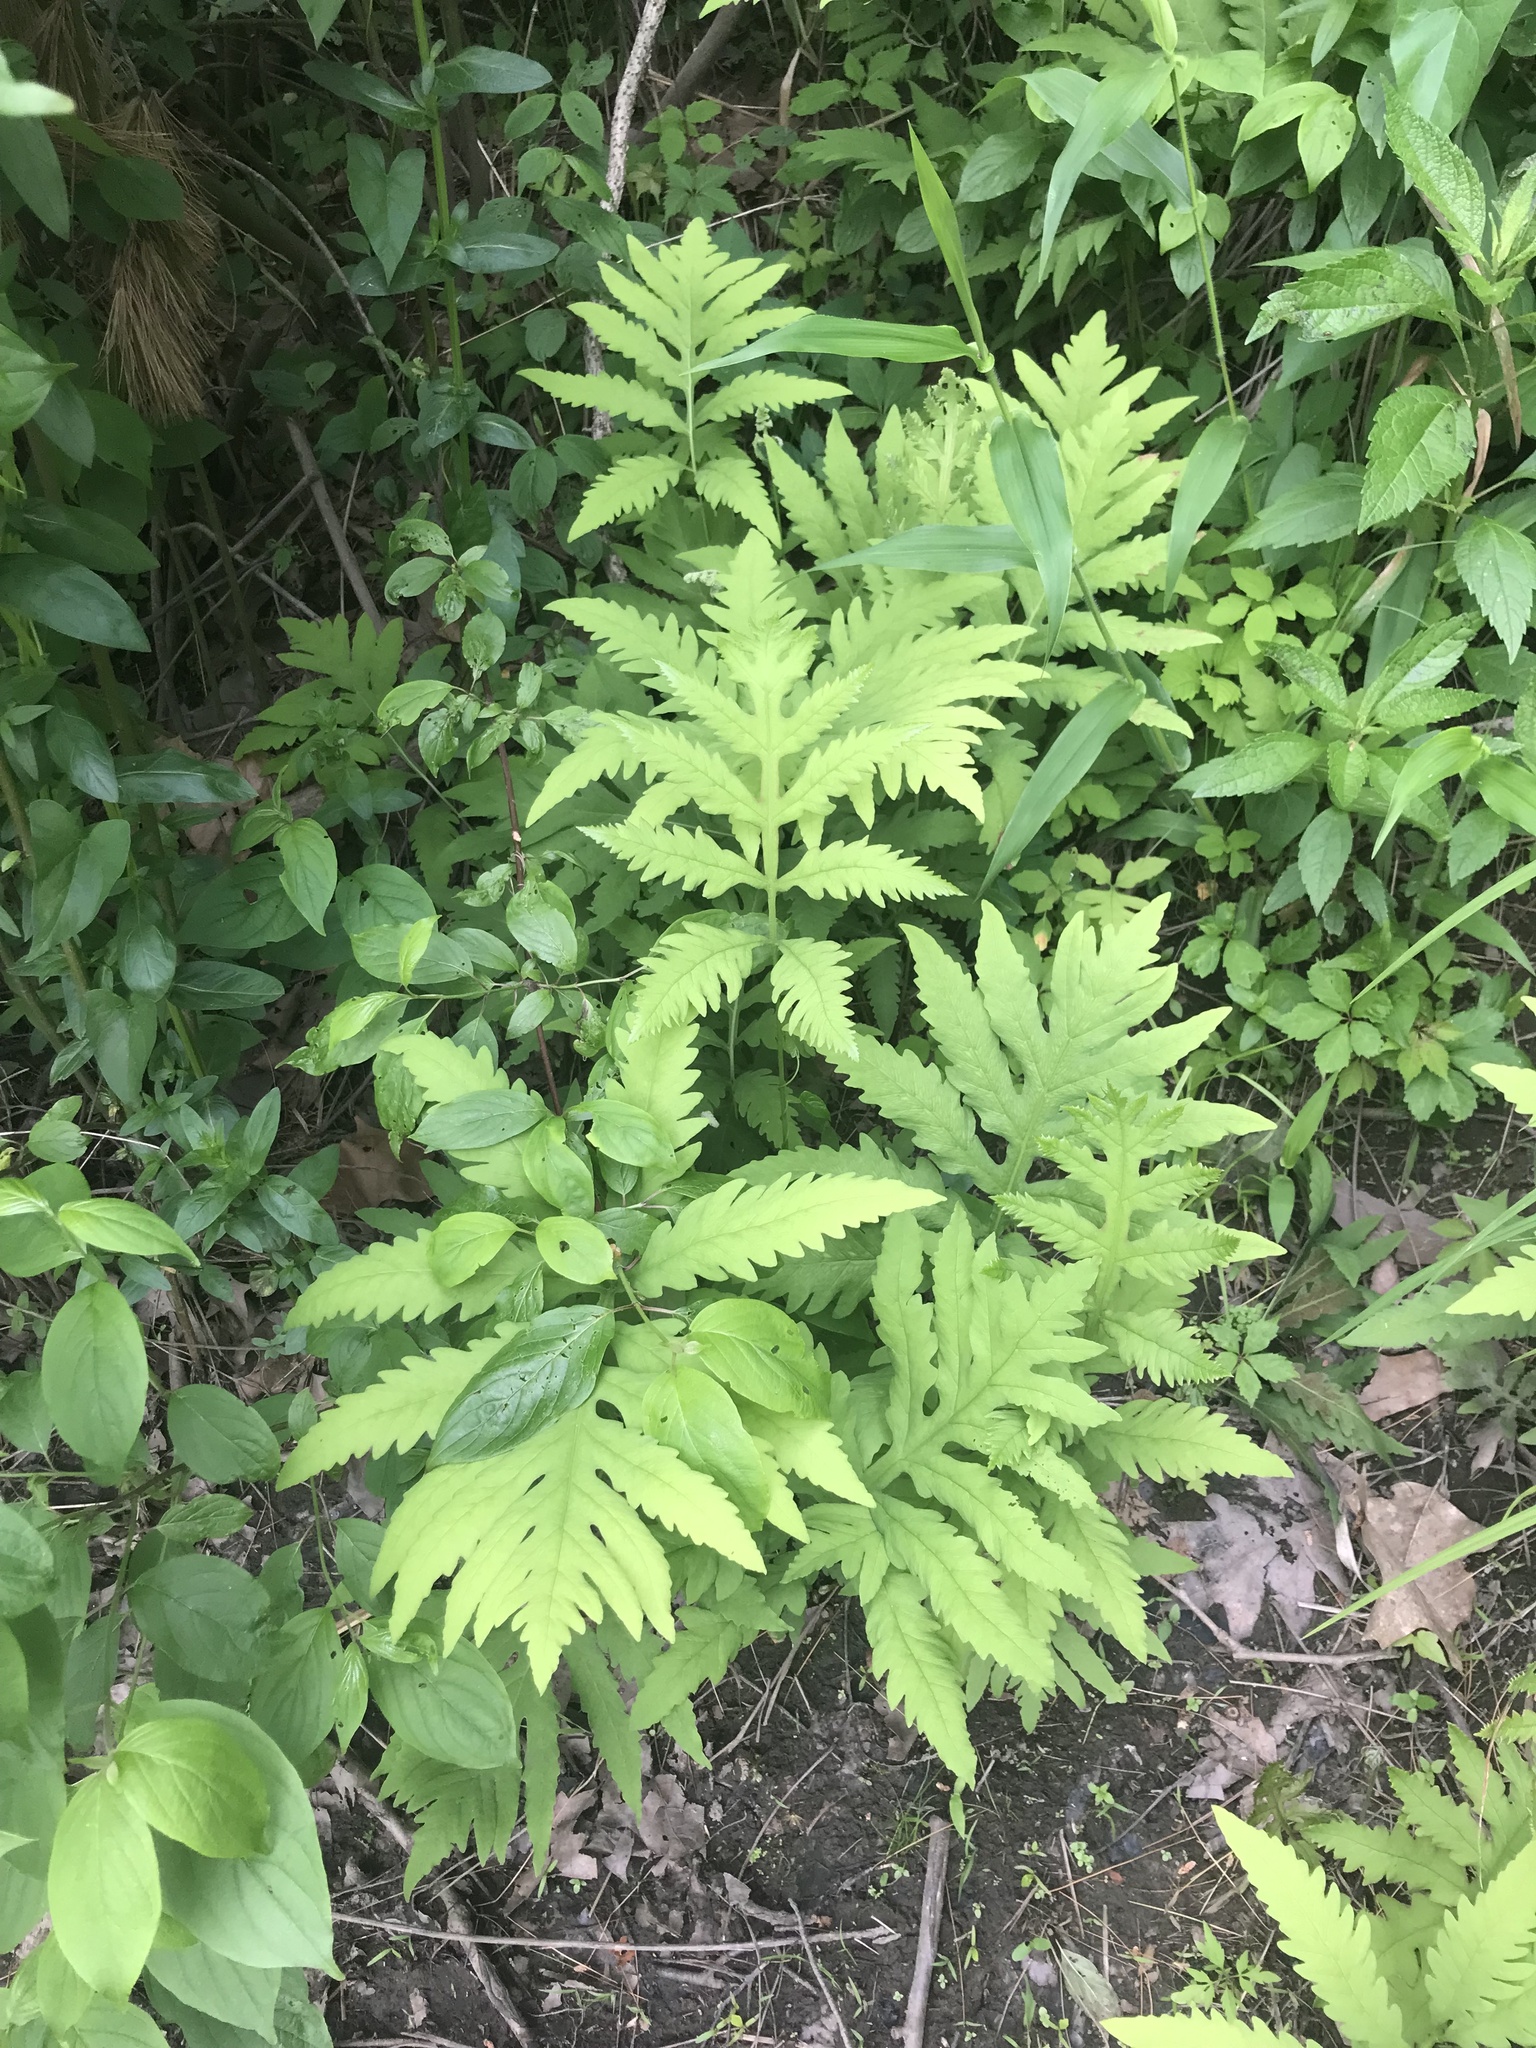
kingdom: Plantae
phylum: Tracheophyta
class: Polypodiopsida
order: Polypodiales
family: Onocleaceae
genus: Onoclea
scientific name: Onoclea sensibilis
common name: Sensitive fern
